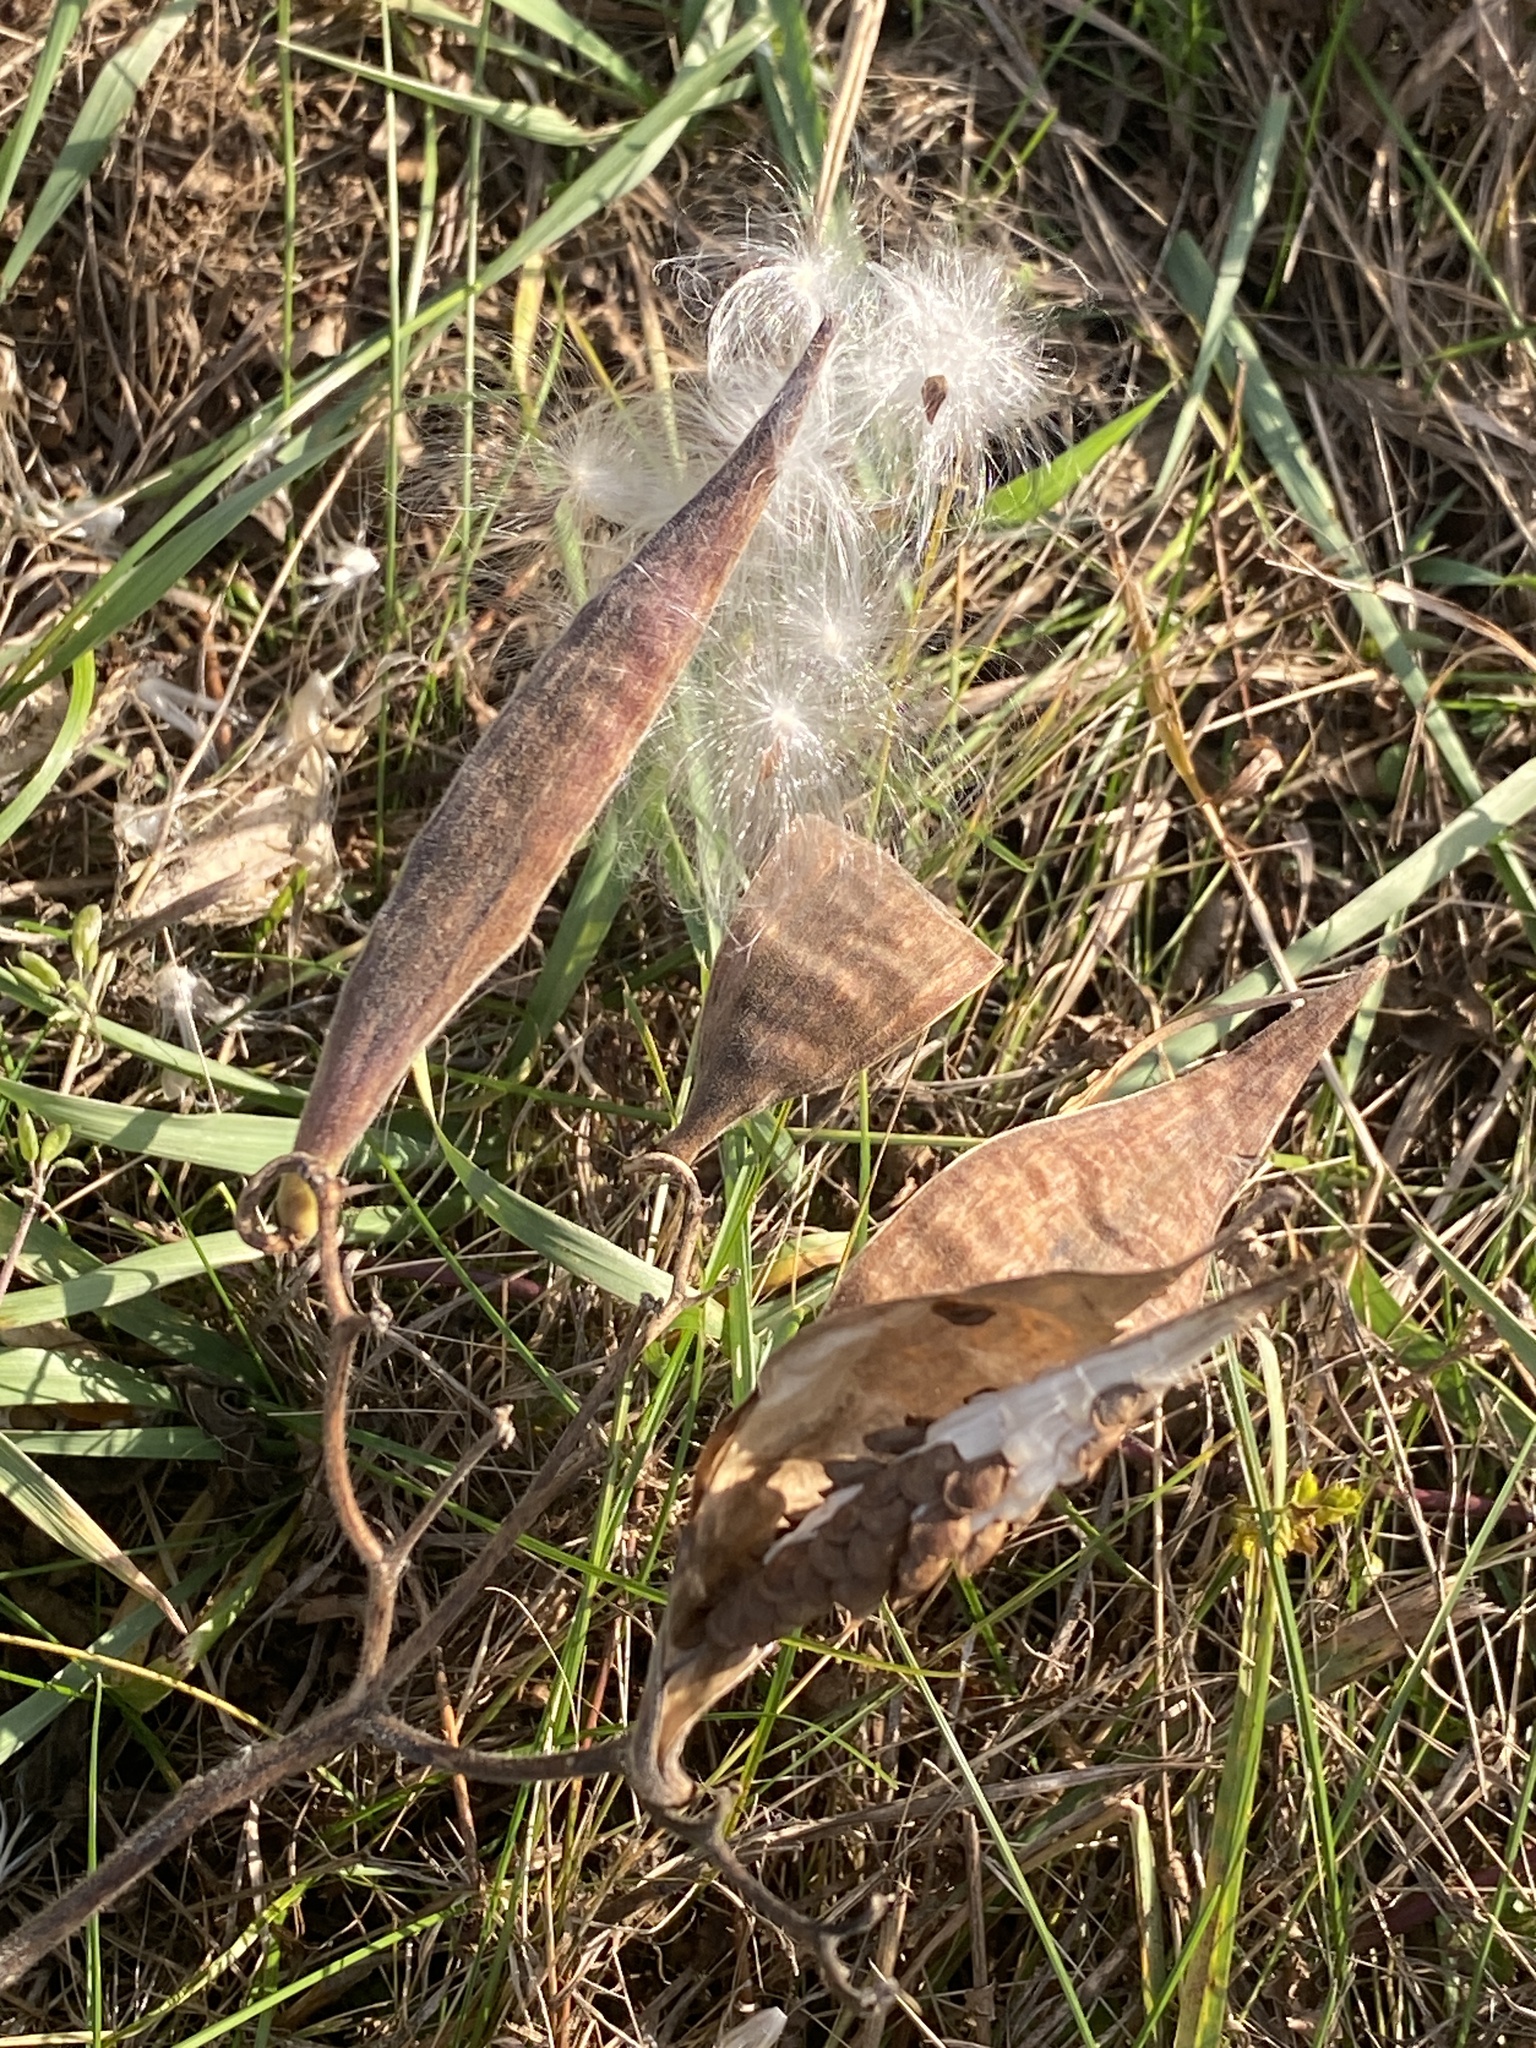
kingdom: Plantae
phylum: Tracheophyta
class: Magnoliopsida
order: Gentianales
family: Apocynaceae
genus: Asclepias
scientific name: Asclepias tuberosa
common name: Butterfly milkweed
